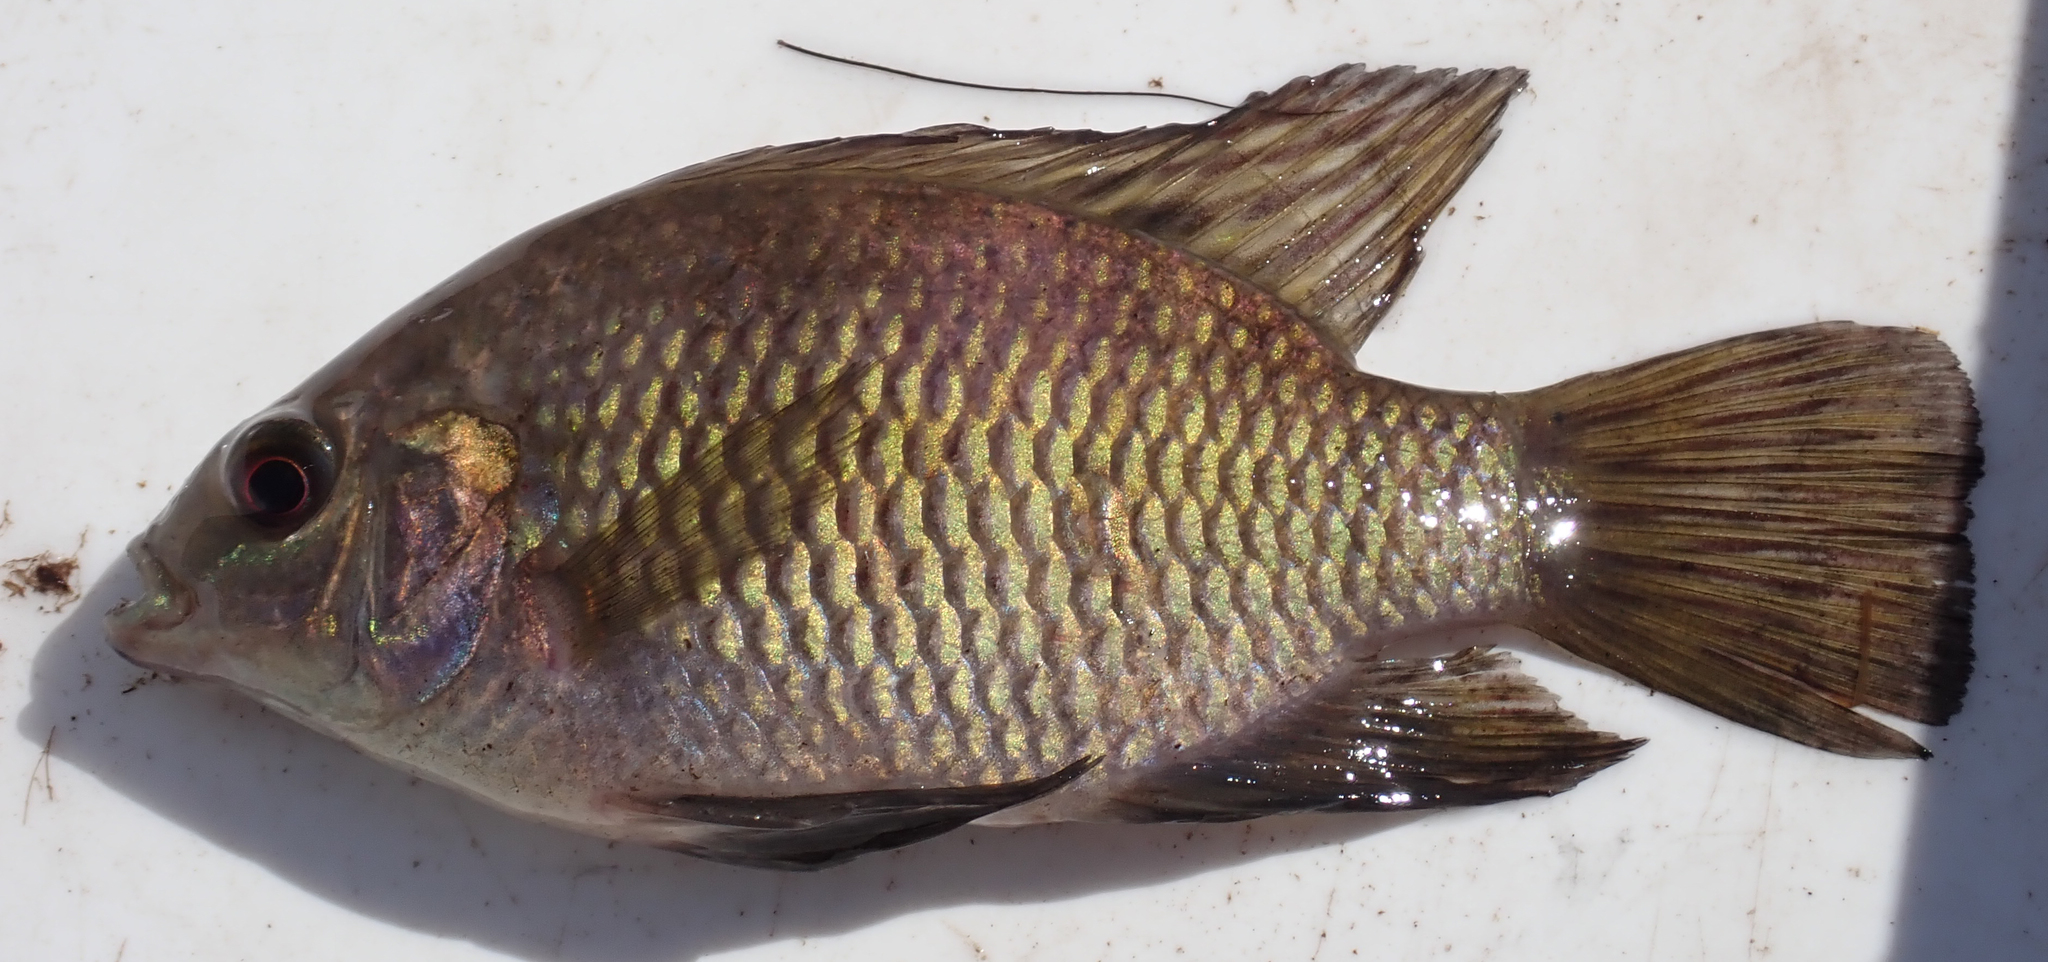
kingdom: Animalia
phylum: Chordata
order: Perciformes
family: Cichlidae
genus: Tilapia
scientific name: Tilapia sparrmanii
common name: Banded tilapia
